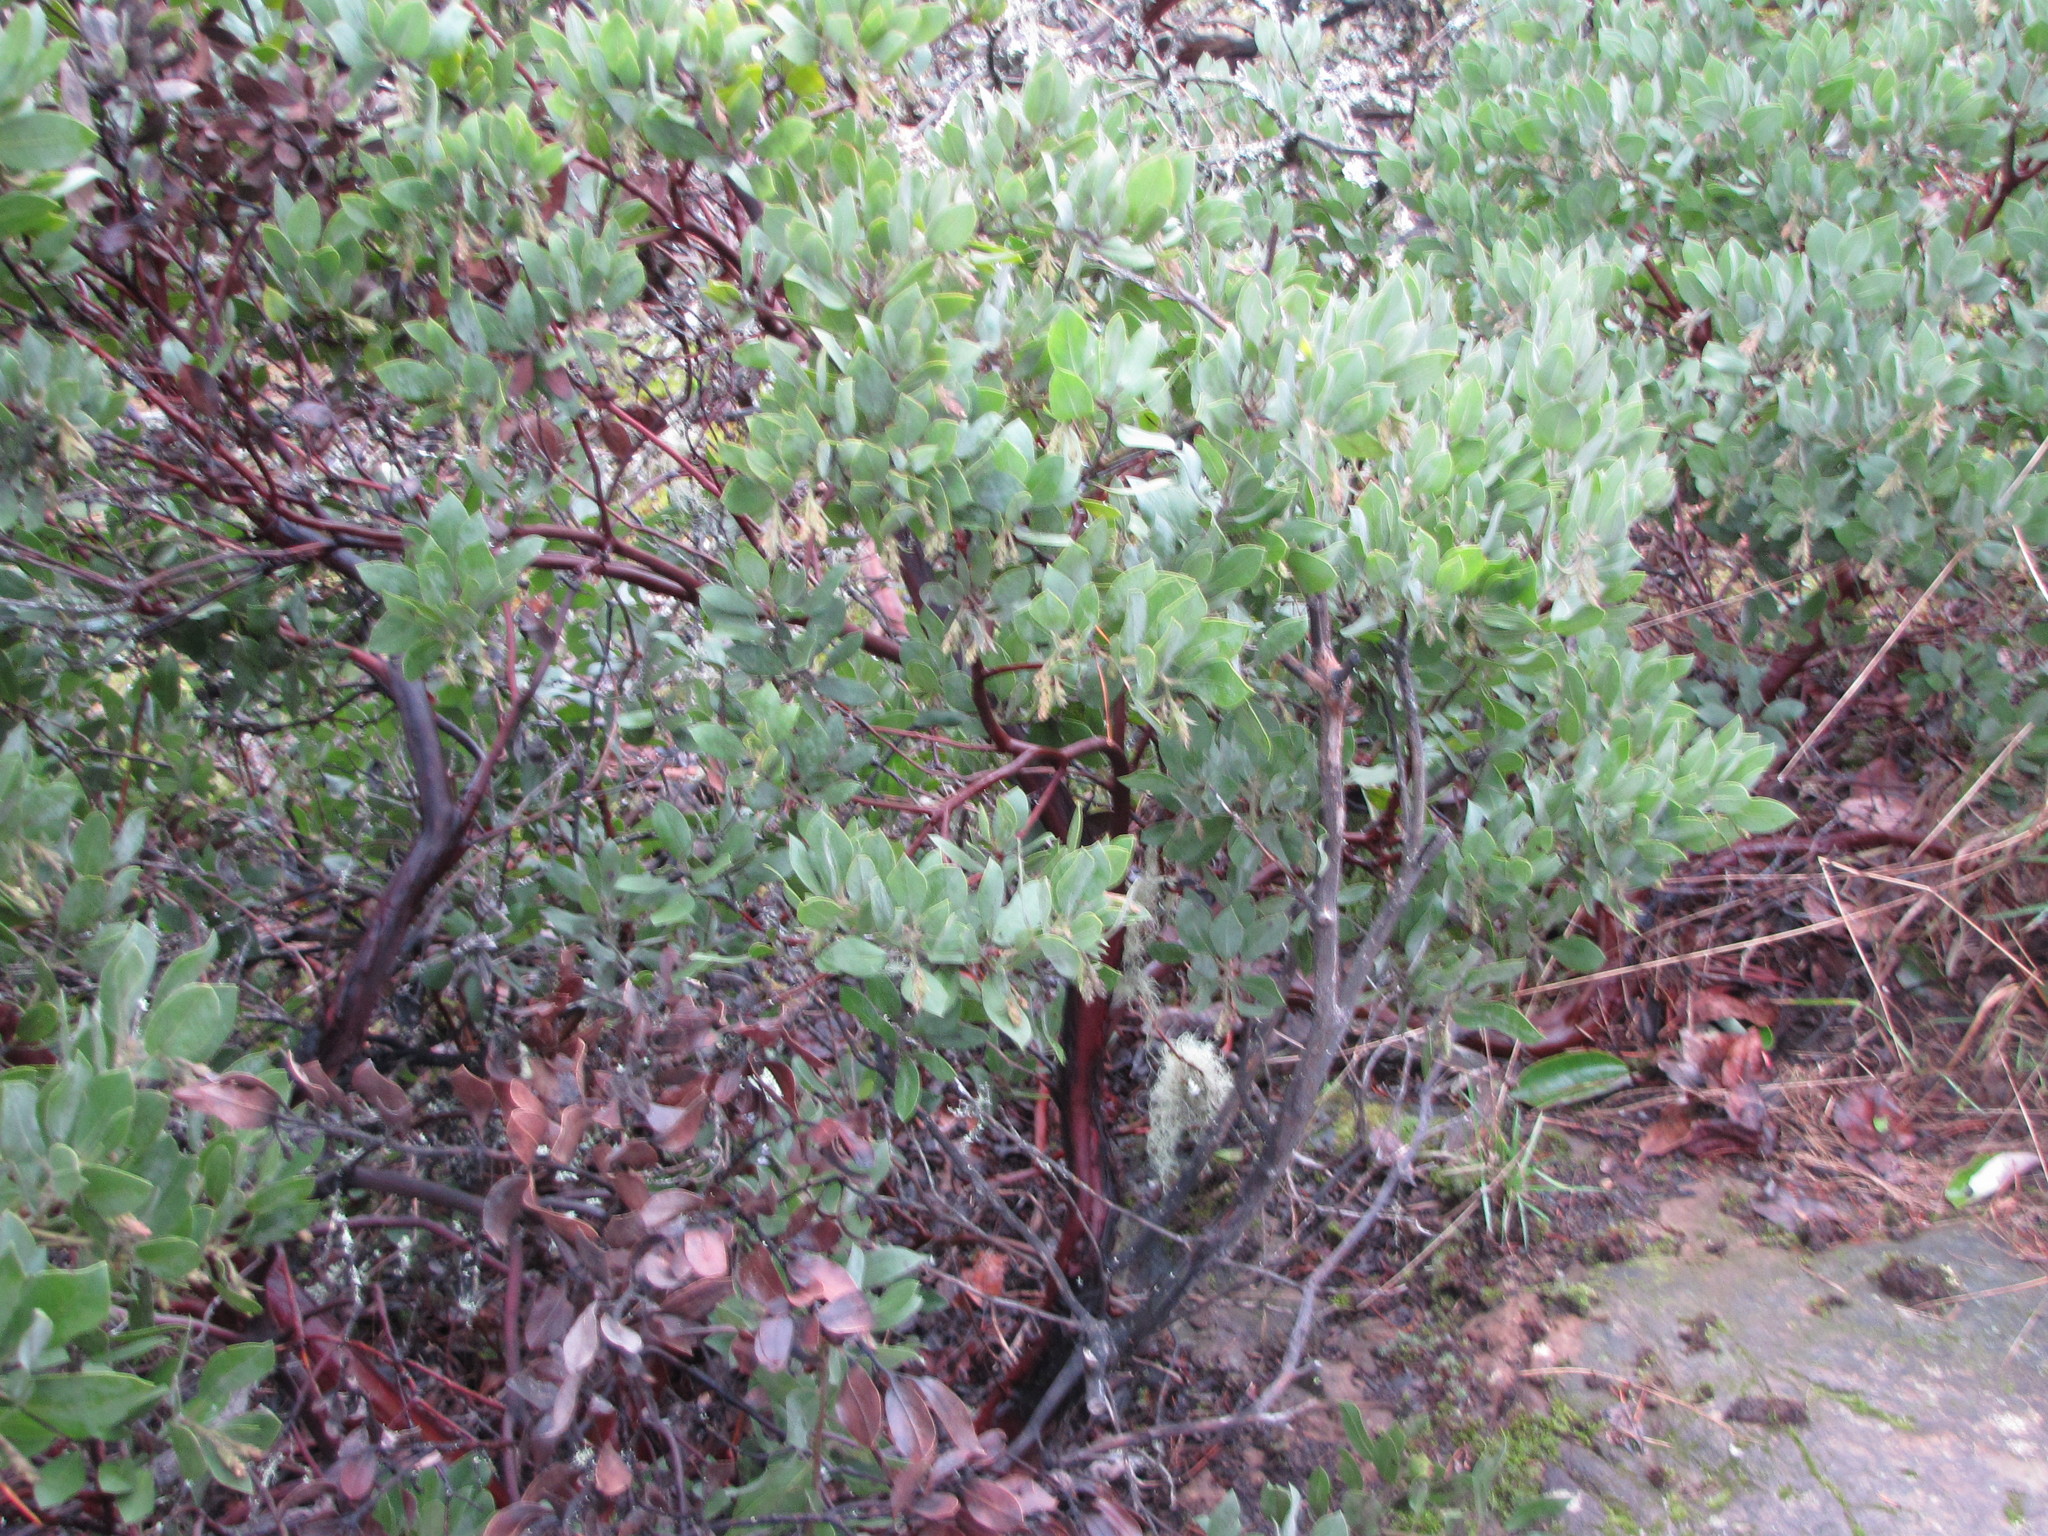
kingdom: Plantae
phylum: Tracheophyta
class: Magnoliopsida
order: Ericales
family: Ericaceae
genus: Arctostaphylos
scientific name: Arctostaphylos columbiana
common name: Bristly bearberry
